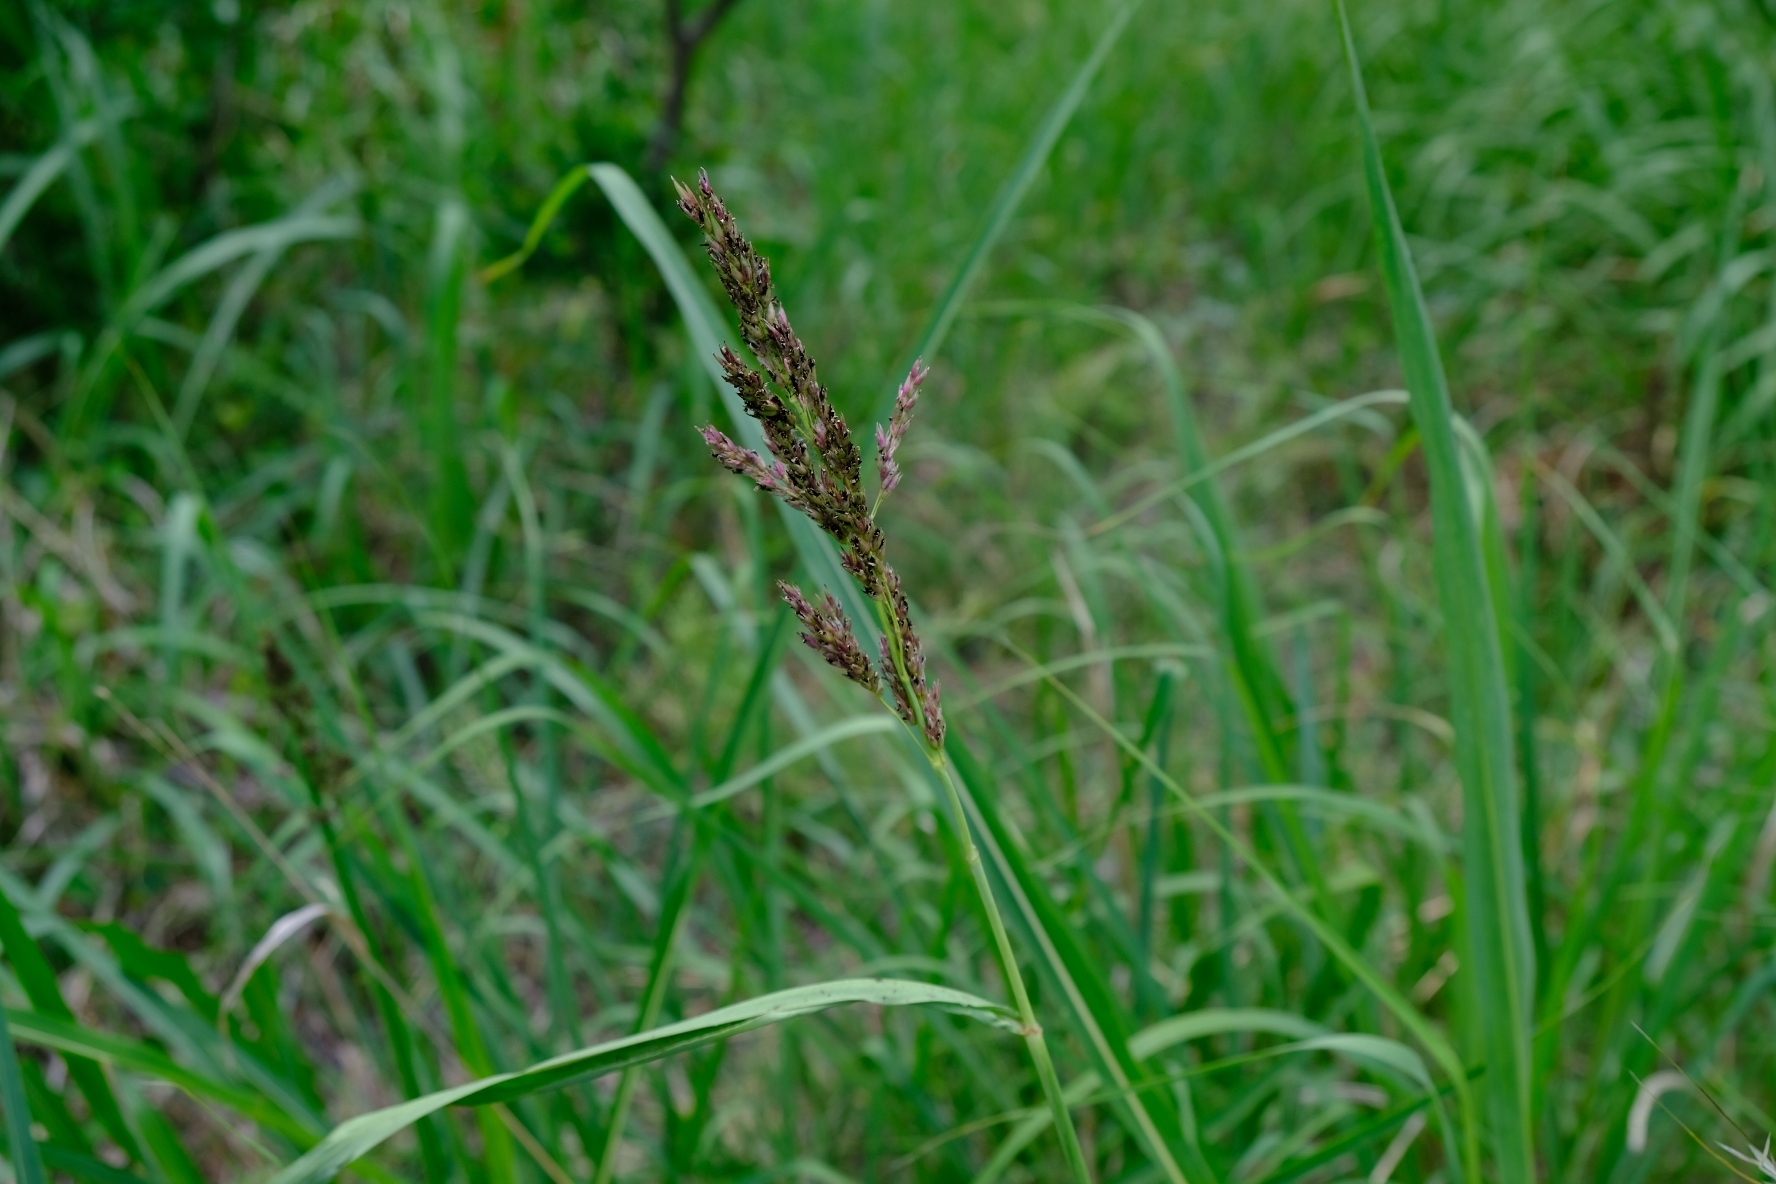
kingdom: Plantae
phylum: Tracheophyta
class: Liliopsida
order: Poales
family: Poaceae
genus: Sorghum
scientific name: Sorghum halepense
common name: Johnson-grass
